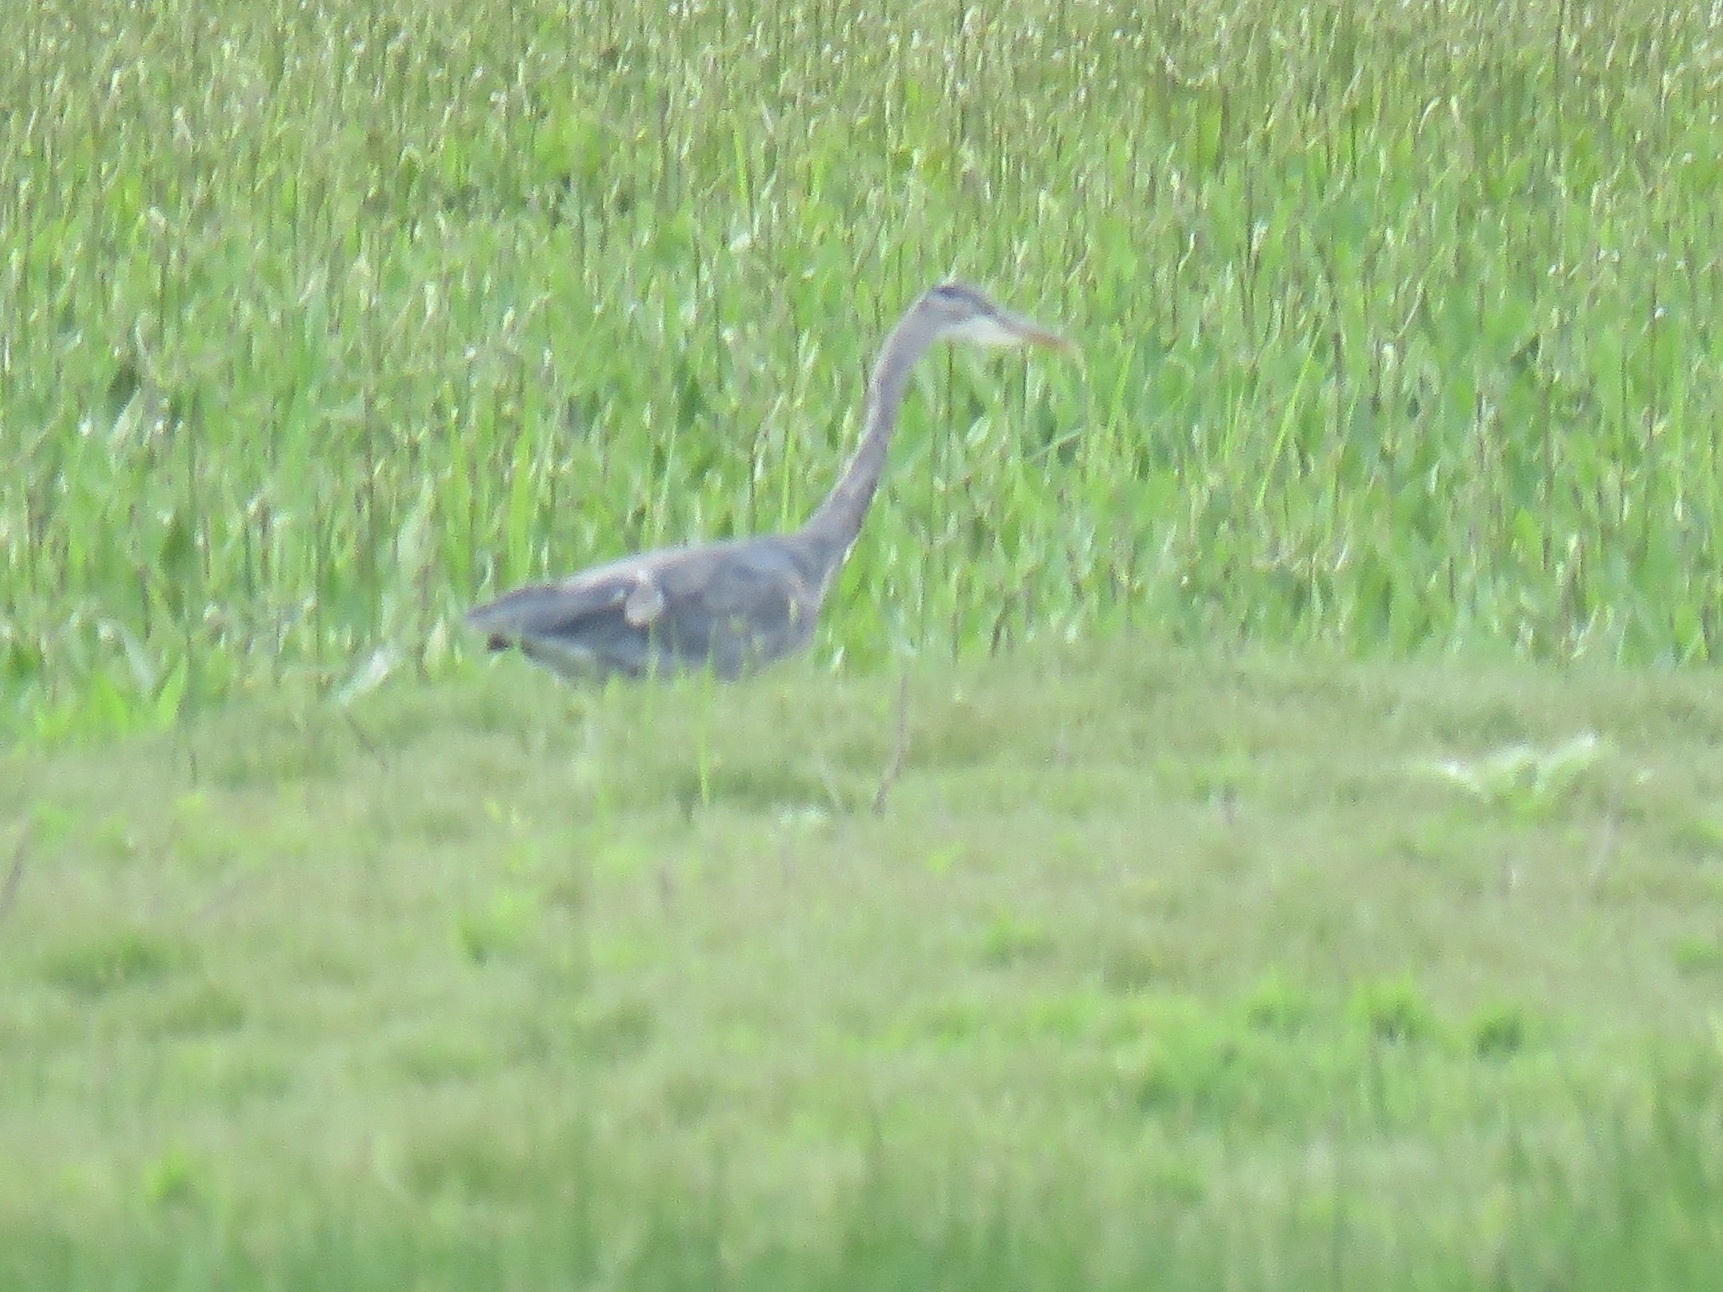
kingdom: Animalia
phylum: Chordata
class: Aves
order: Pelecaniformes
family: Ardeidae
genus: Ardea
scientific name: Ardea herodias
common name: Great blue heron
